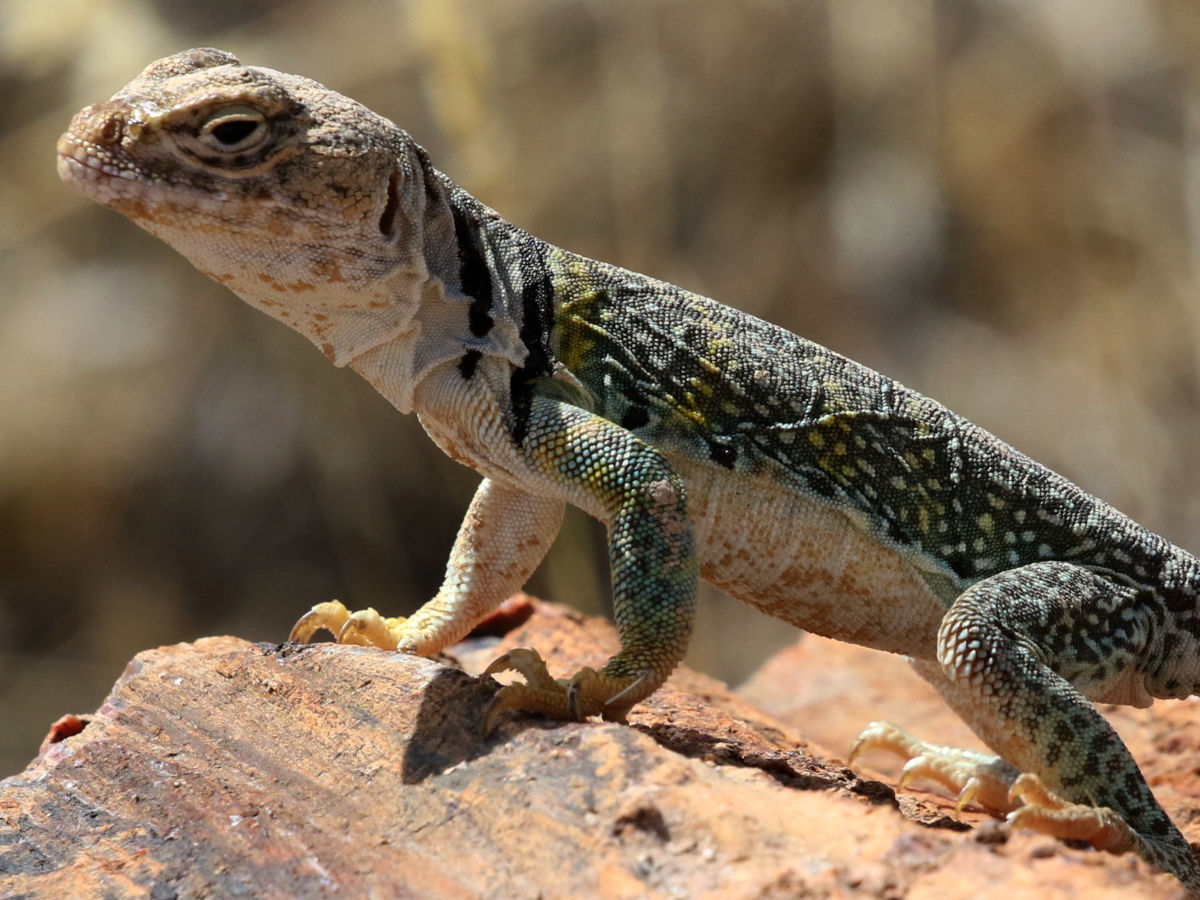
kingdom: Animalia
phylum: Chordata
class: Squamata
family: Crotaphytidae
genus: Crotaphytus
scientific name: Crotaphytus collaris
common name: Collared lizard
